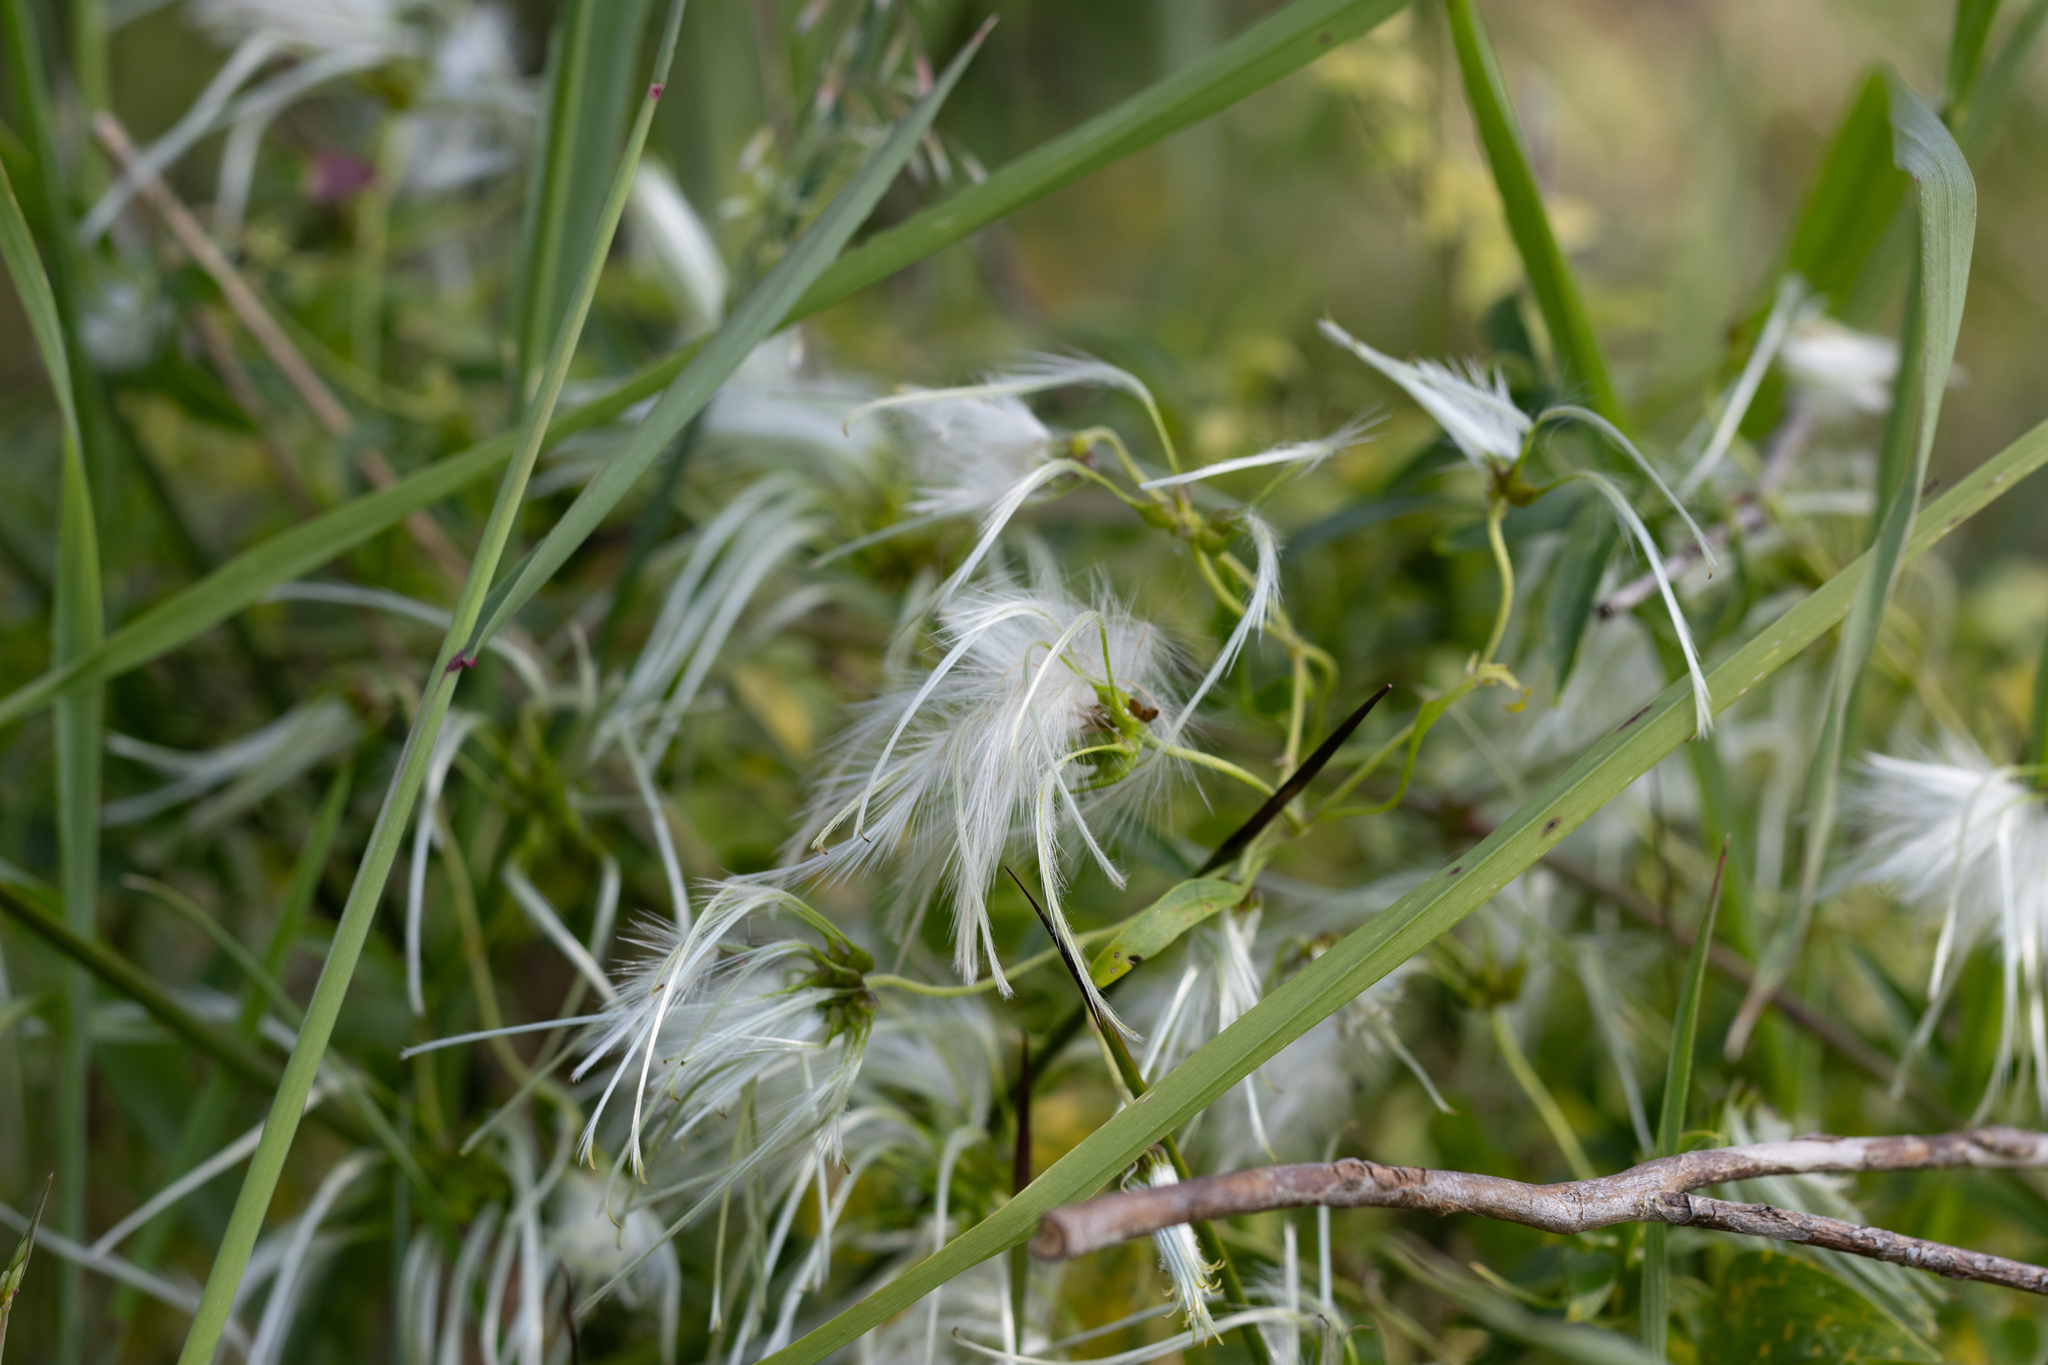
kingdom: Plantae
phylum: Tracheophyta
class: Magnoliopsida
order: Ranunculales
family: Ranunculaceae
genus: Clematis
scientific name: Clematis microphylla
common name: Headachevine
